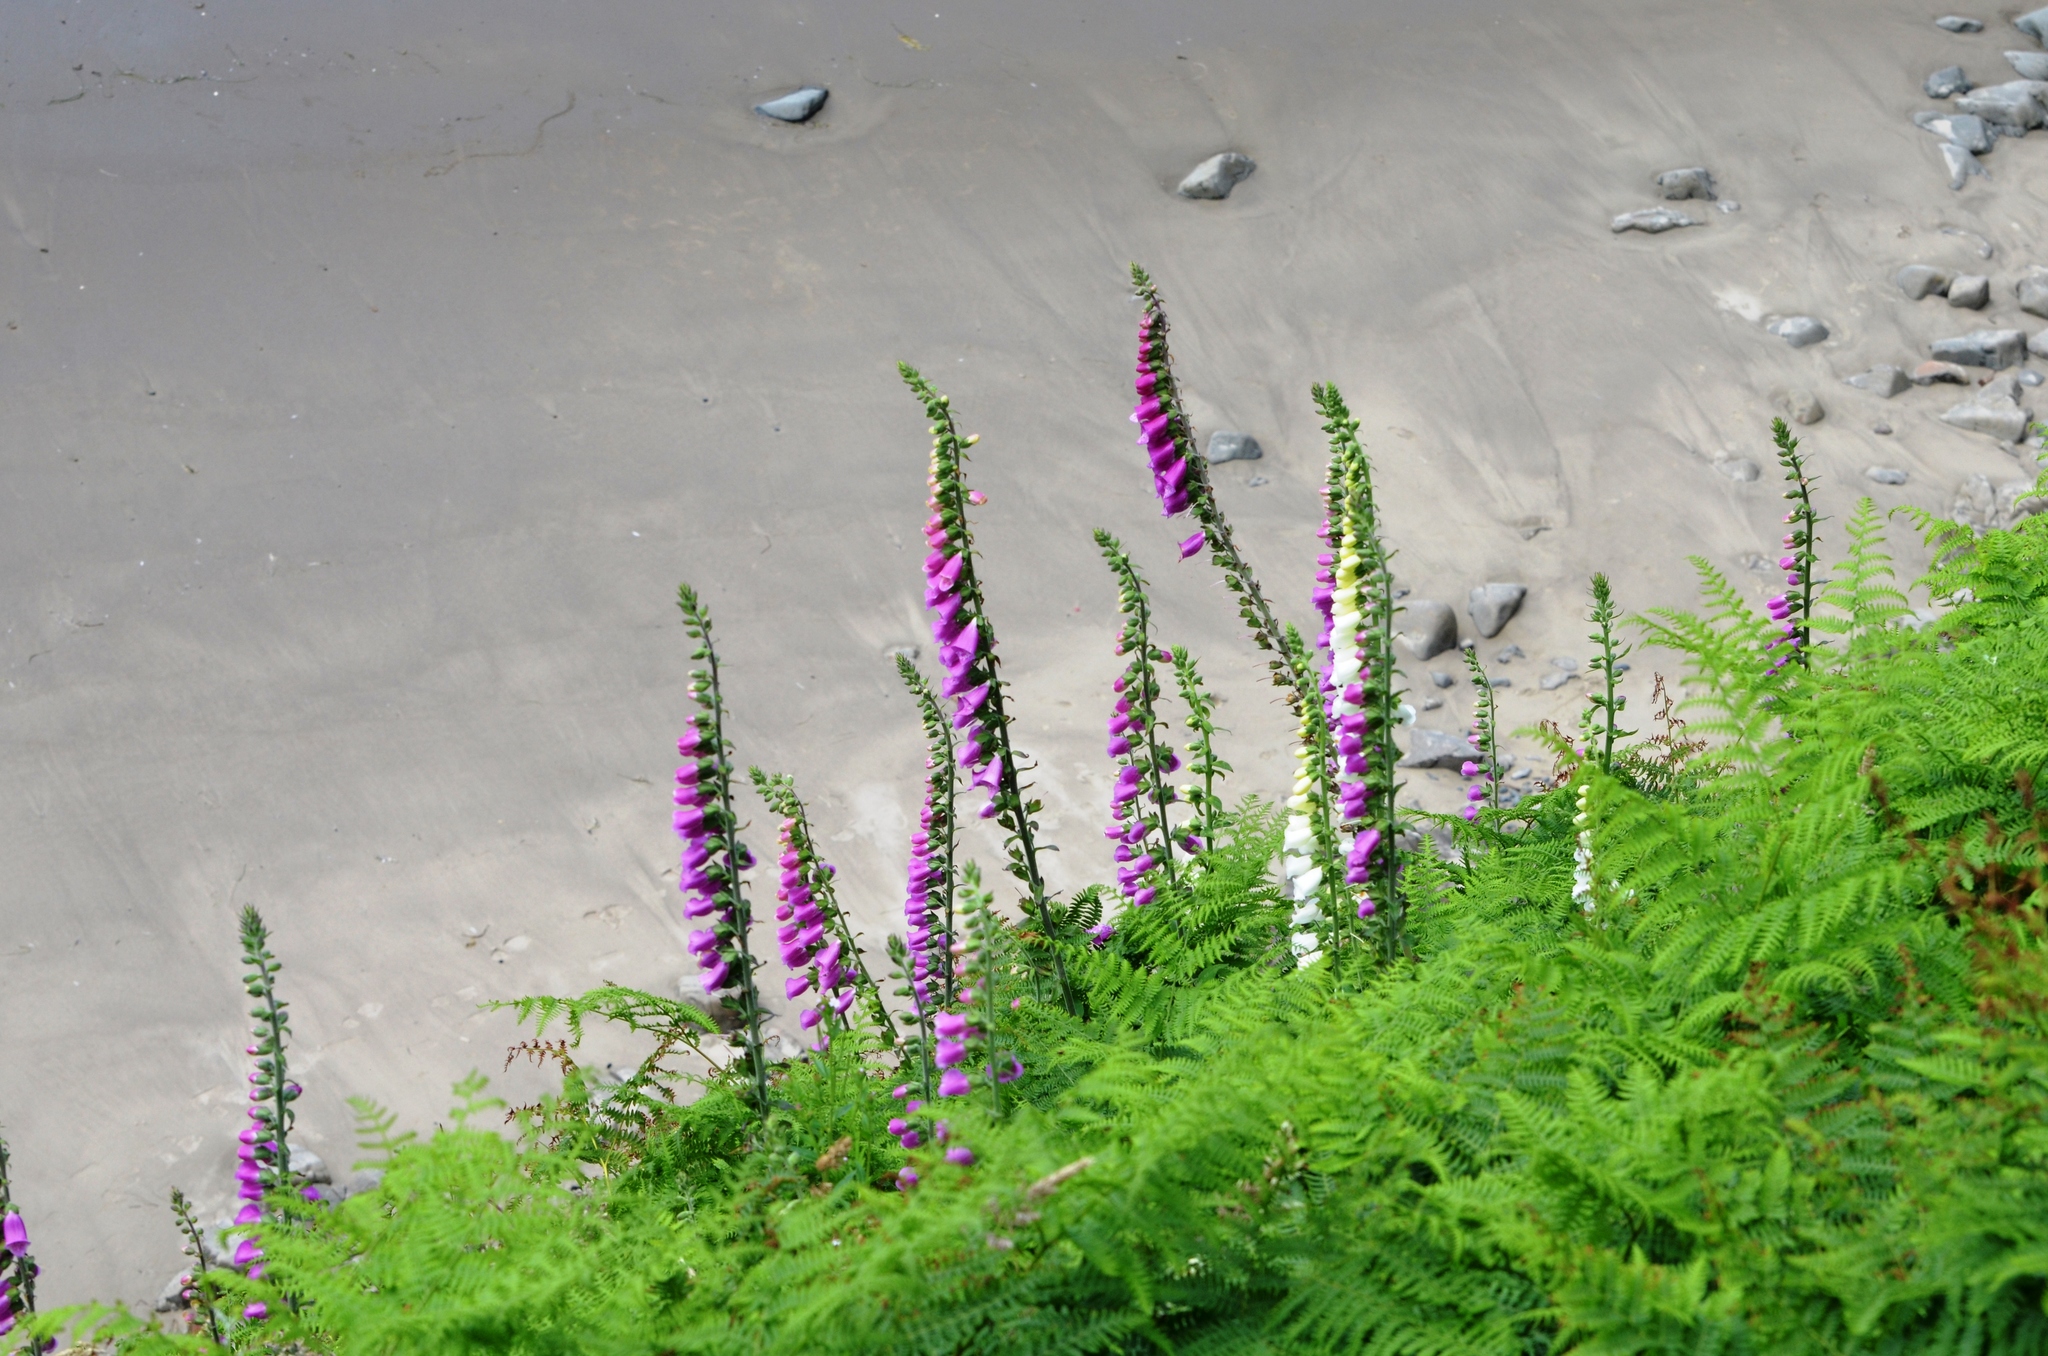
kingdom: Plantae
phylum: Tracheophyta
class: Magnoliopsida
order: Lamiales
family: Plantaginaceae
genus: Digitalis
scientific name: Digitalis purpurea
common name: Foxglove
